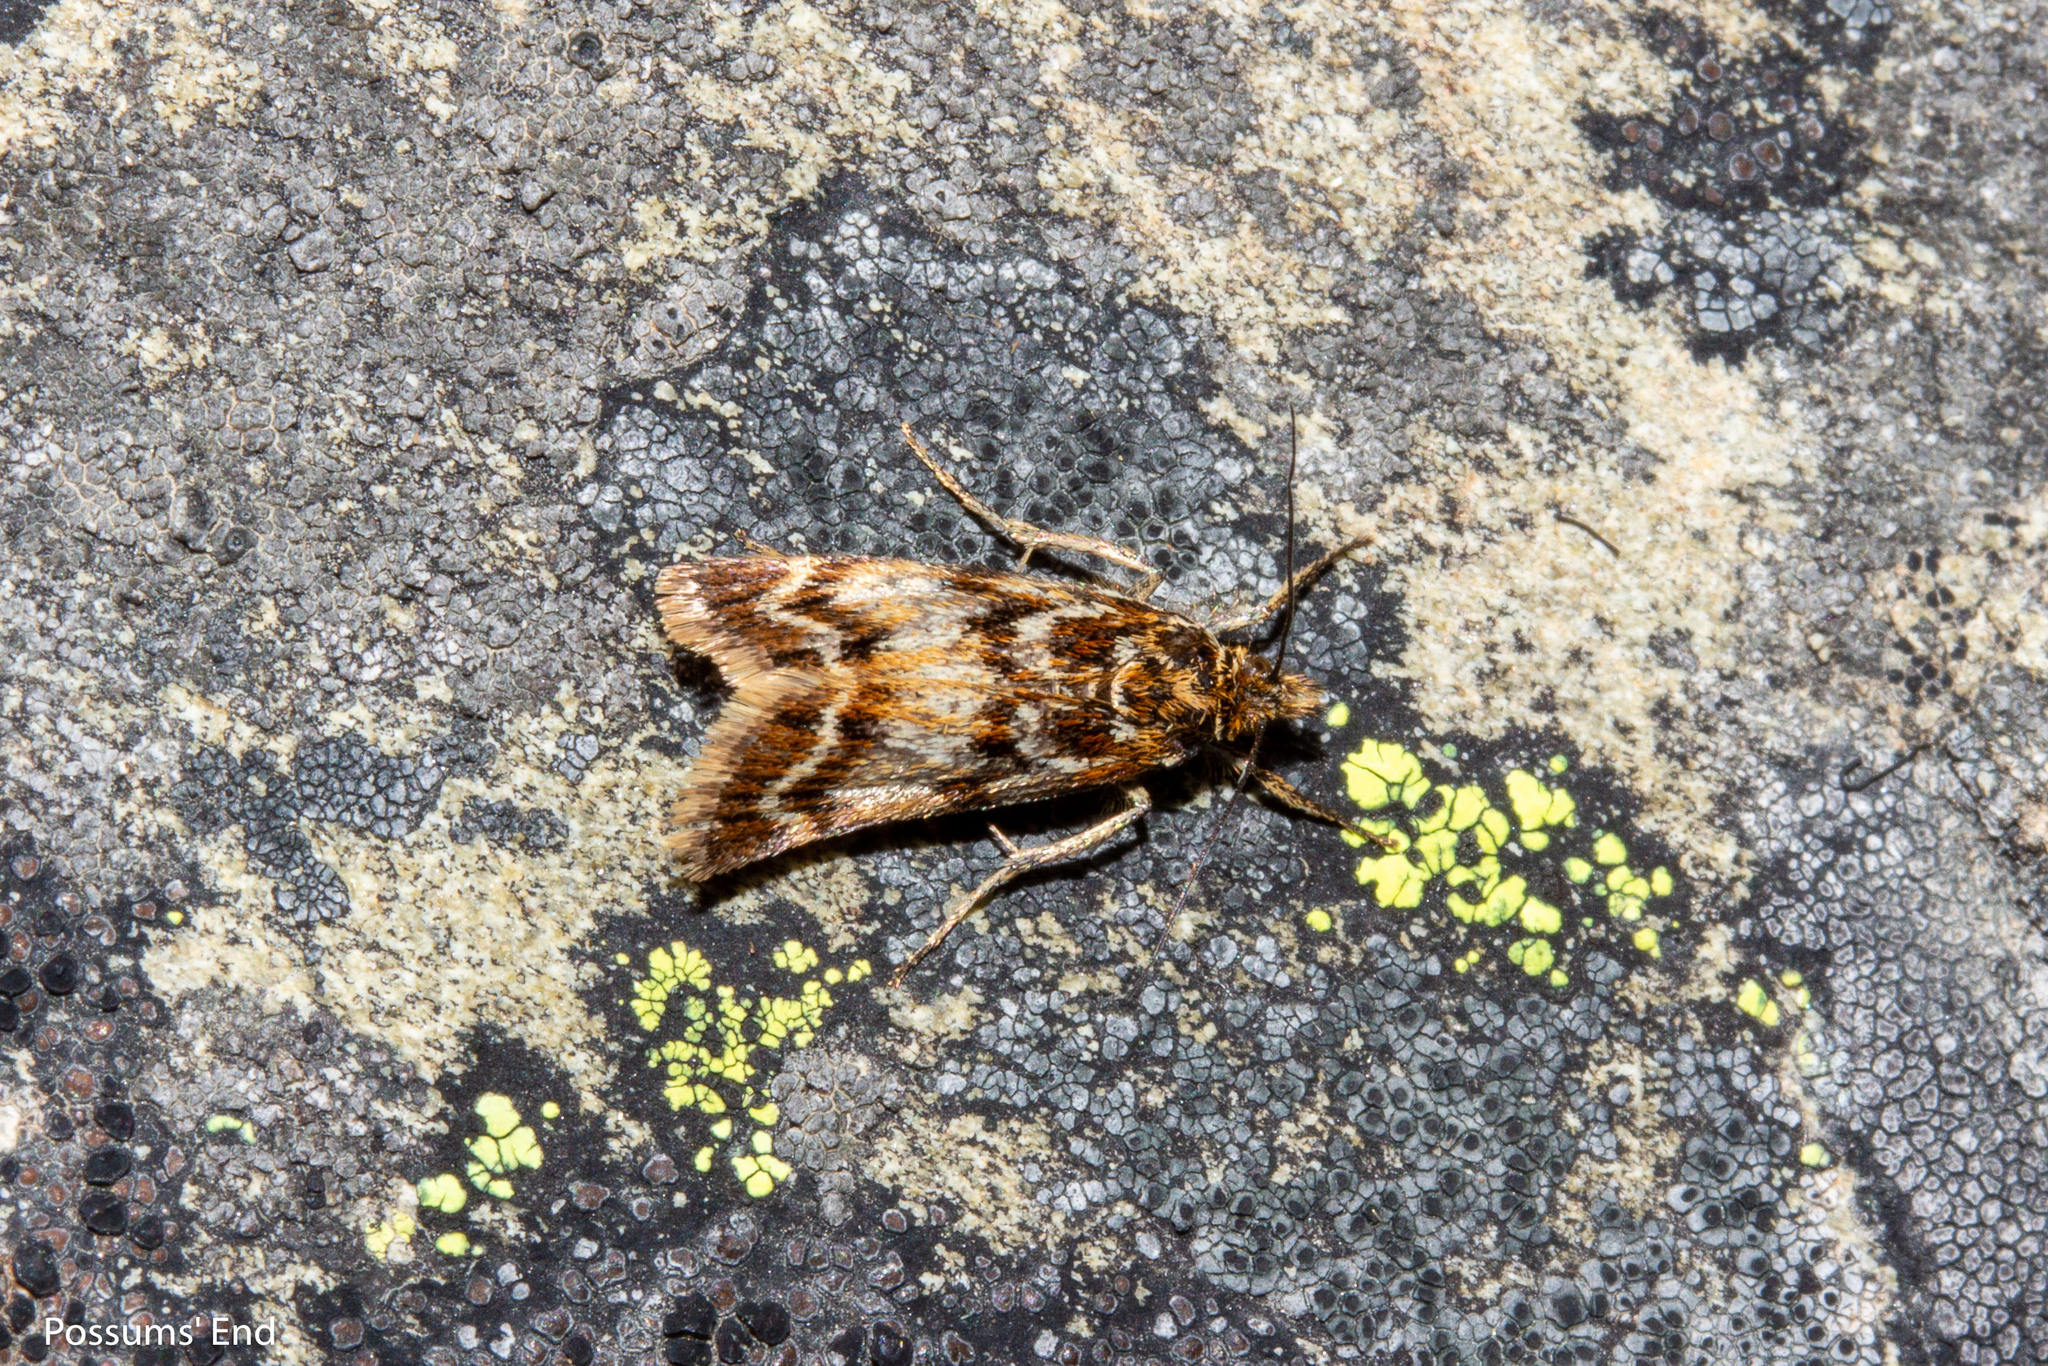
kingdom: Animalia
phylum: Arthropoda
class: Insecta
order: Lepidoptera
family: Crambidae
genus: Orocrambus
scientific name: Orocrambus scoparioides
